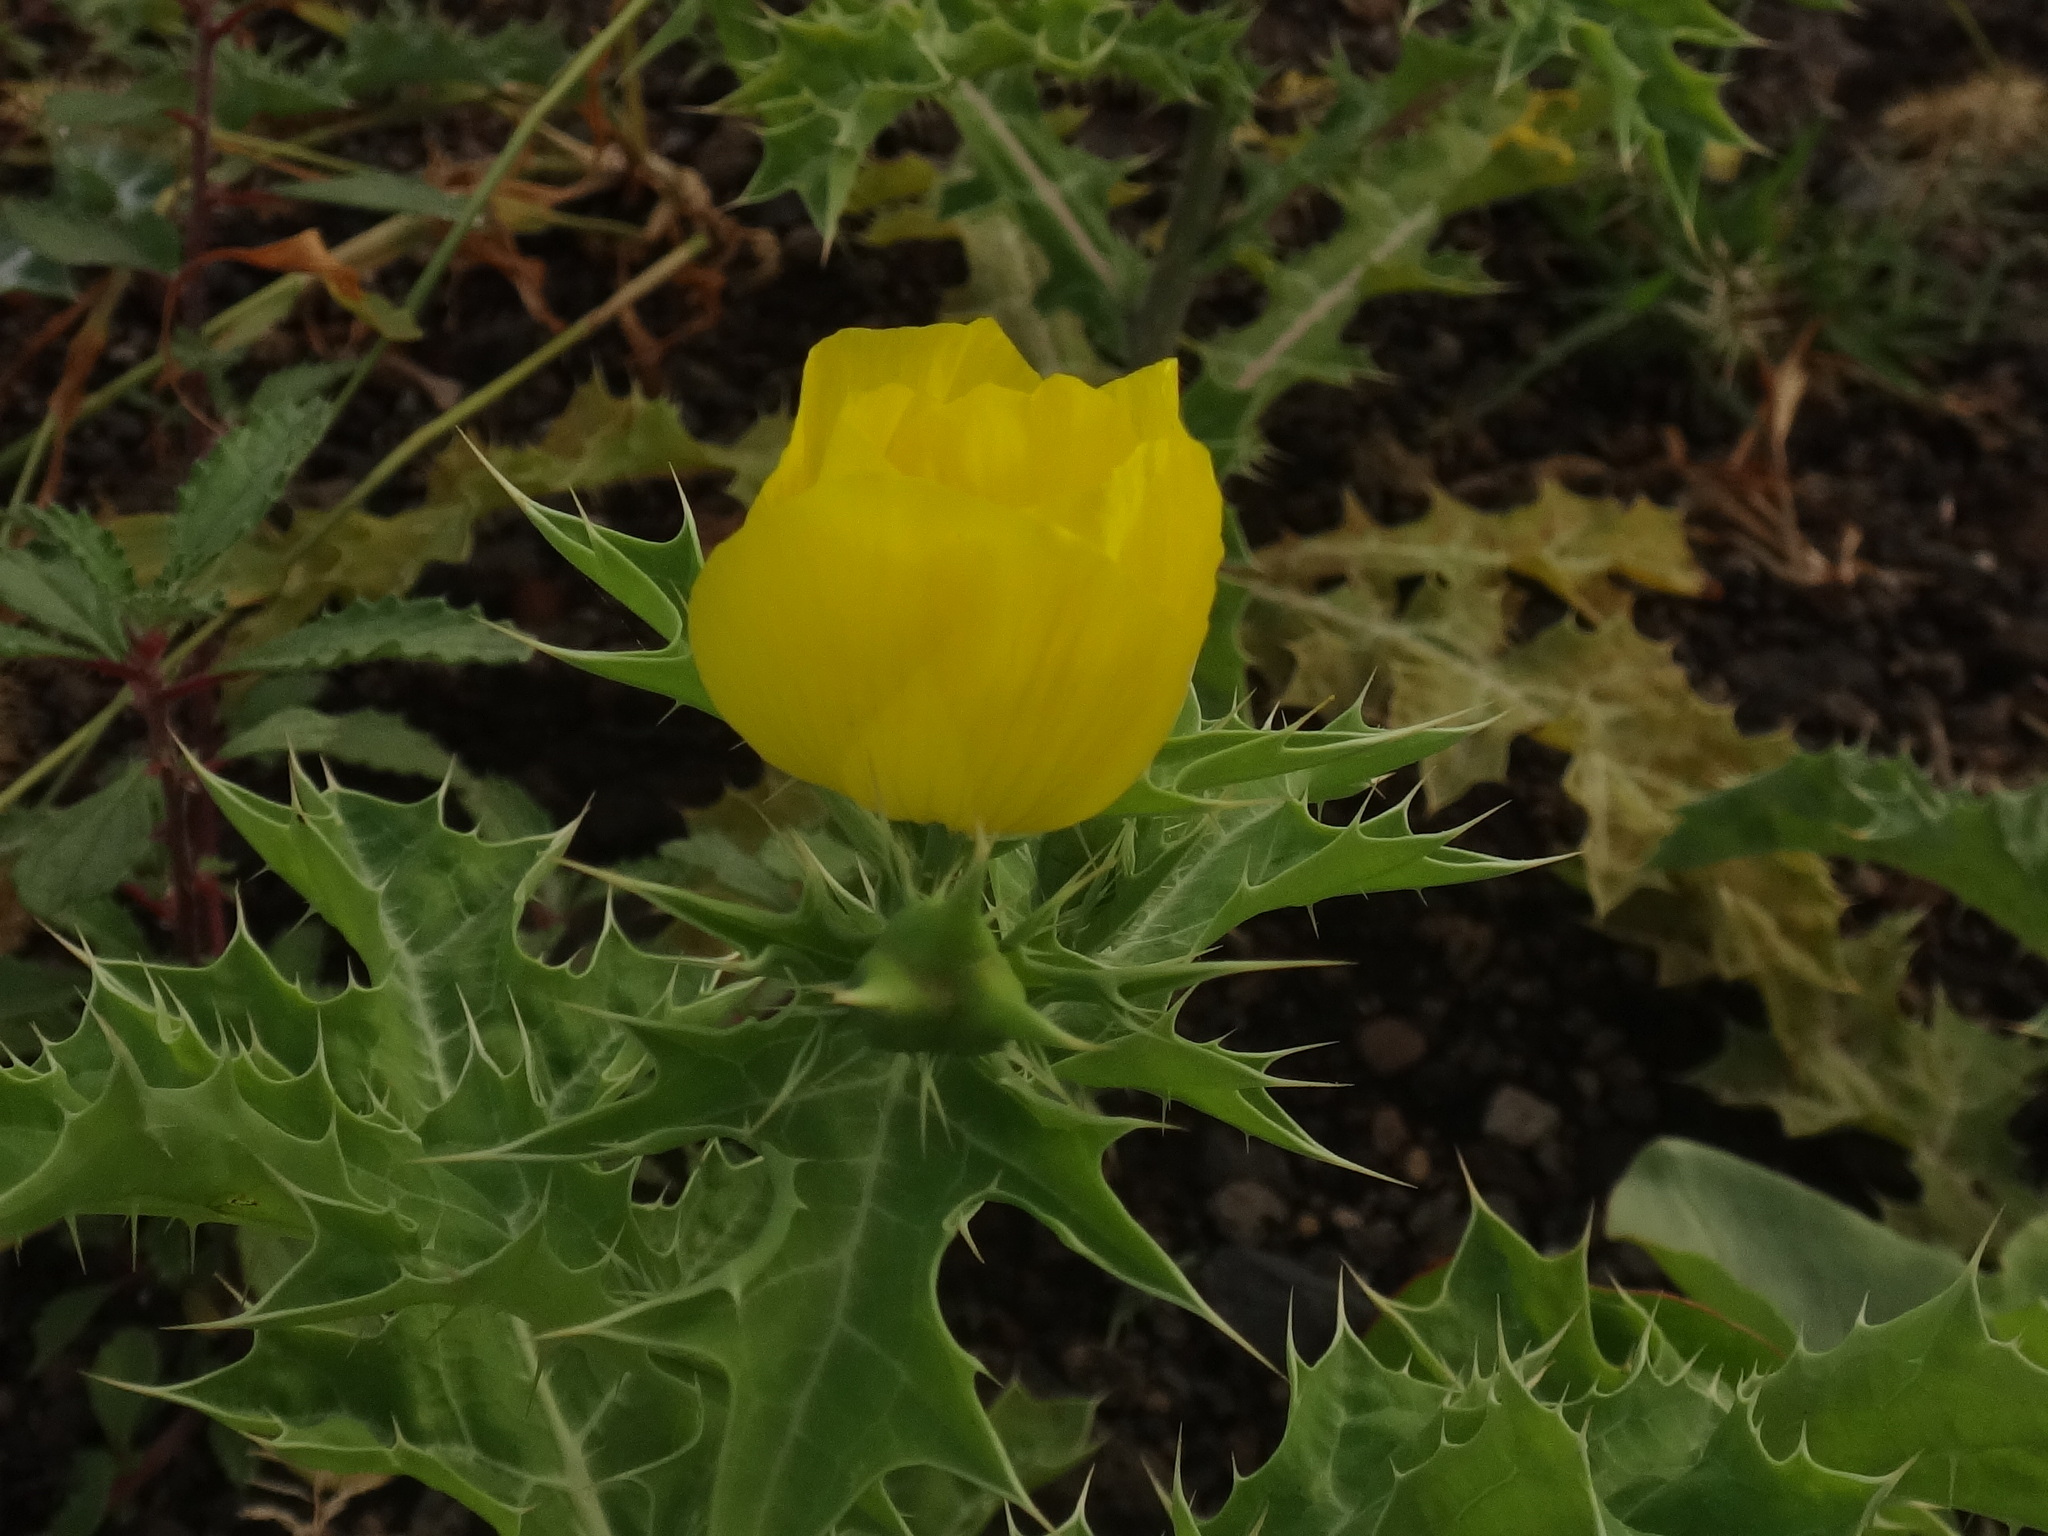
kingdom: Plantae
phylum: Tracheophyta
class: Magnoliopsida
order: Ranunculales
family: Papaveraceae
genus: Argemone
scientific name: Argemone mexicana
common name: Mexican poppy
